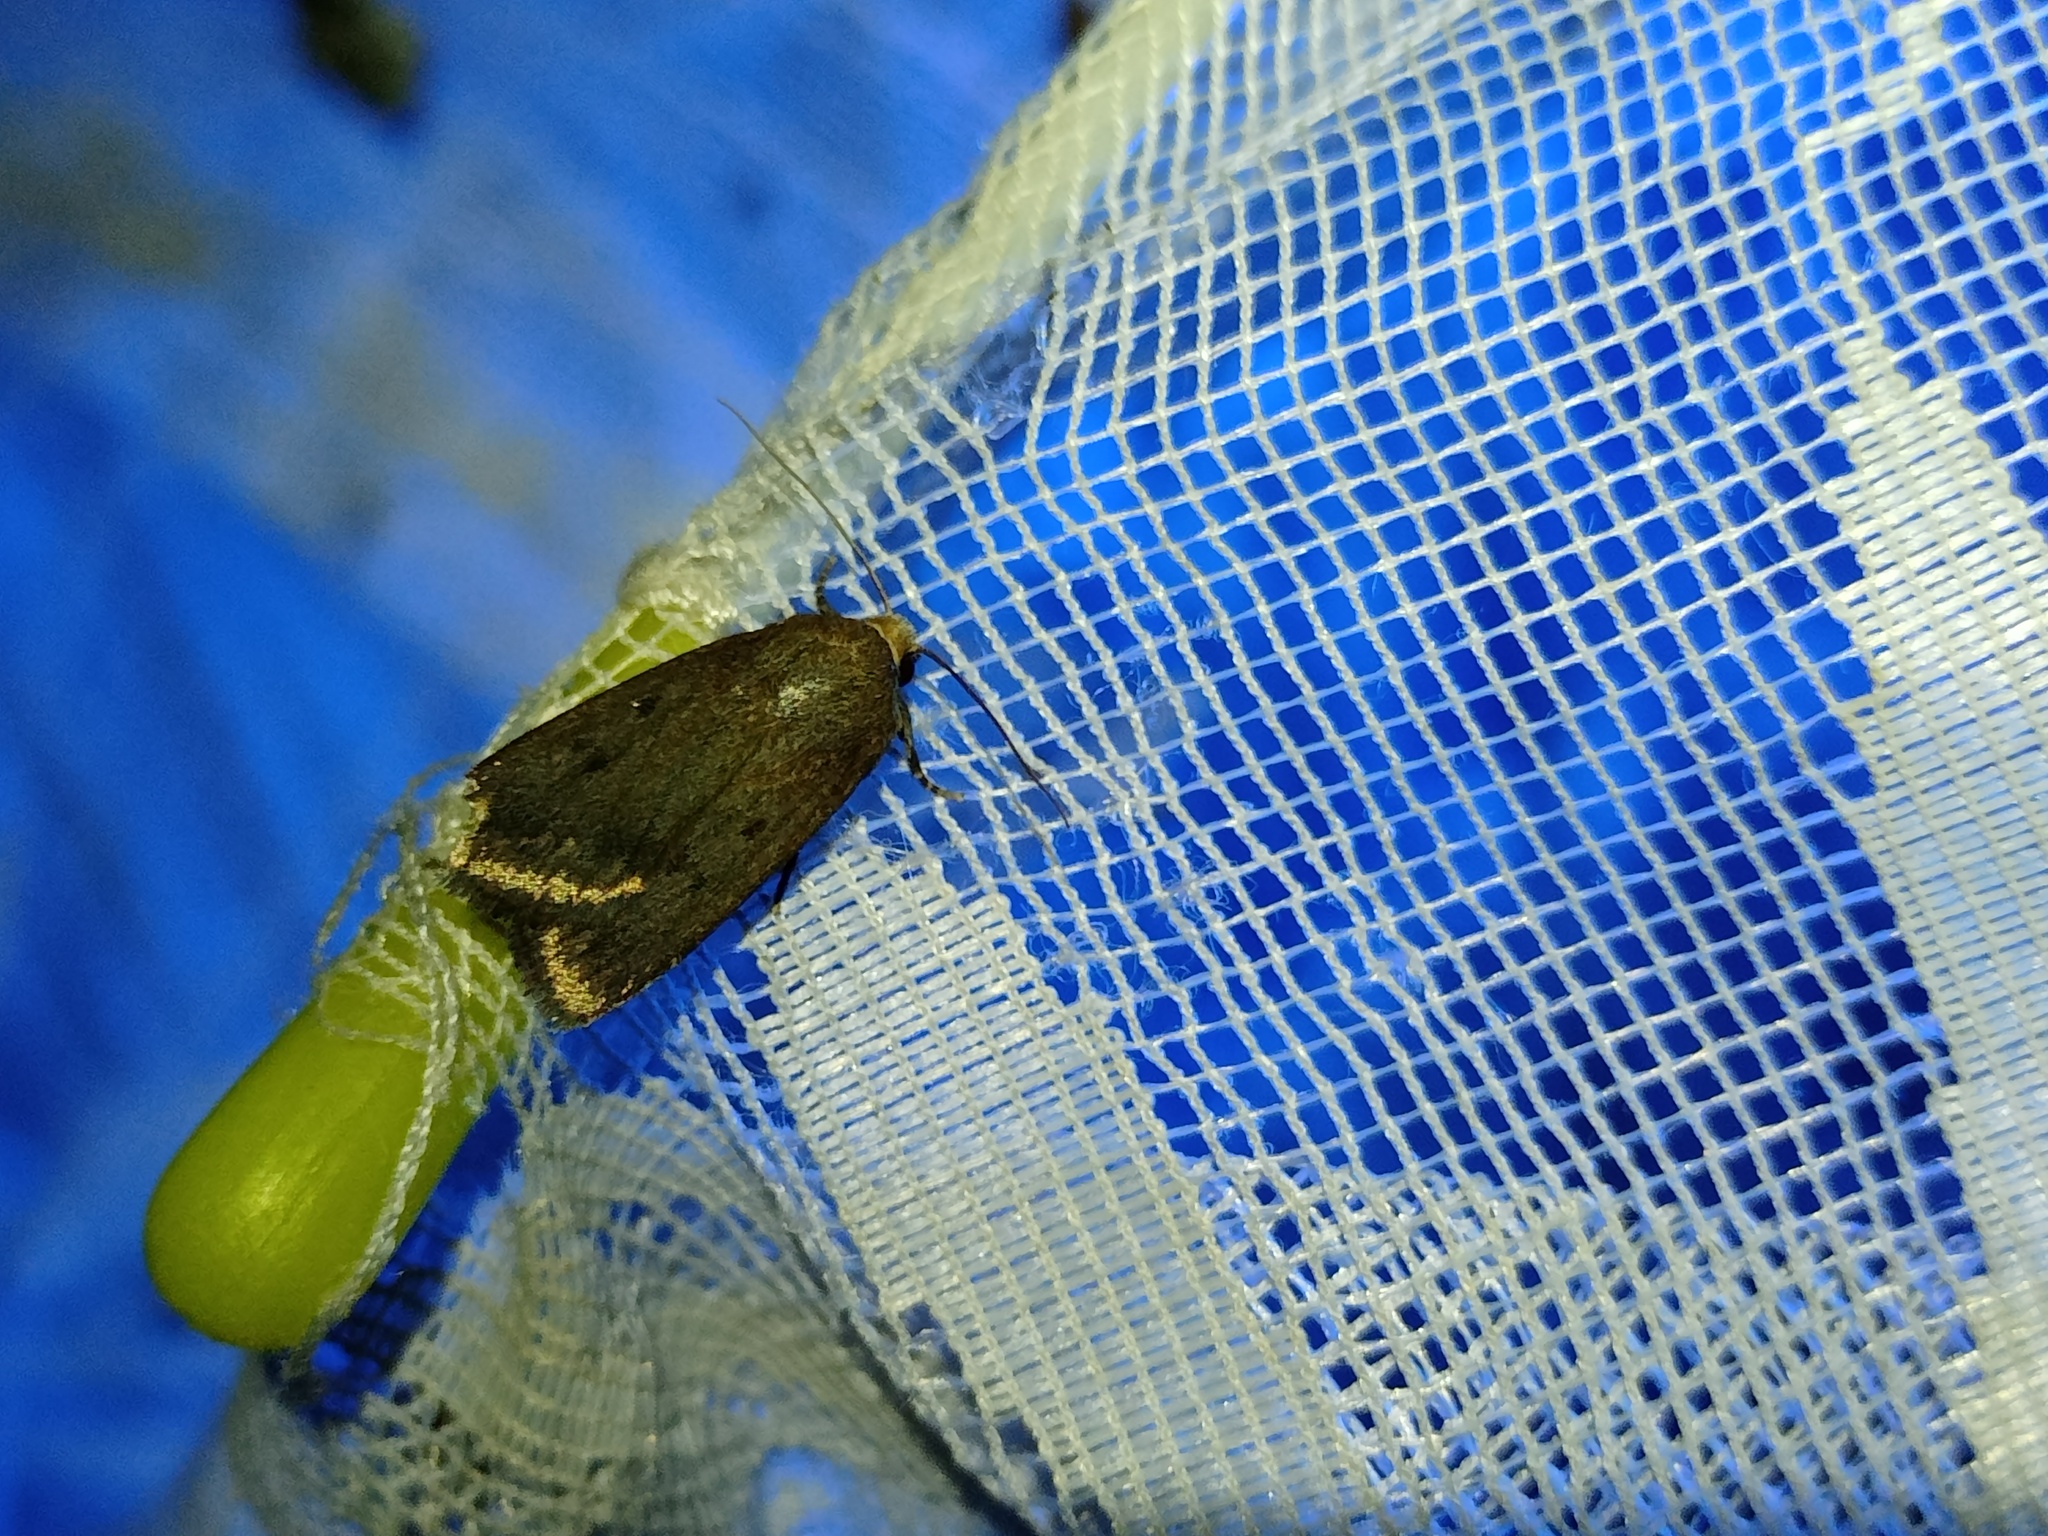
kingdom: Animalia
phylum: Arthropoda
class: Insecta
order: Lepidoptera
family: Noctuidae
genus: Amphipyra
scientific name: Amphipyra tragopoginis
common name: Mouse moth
